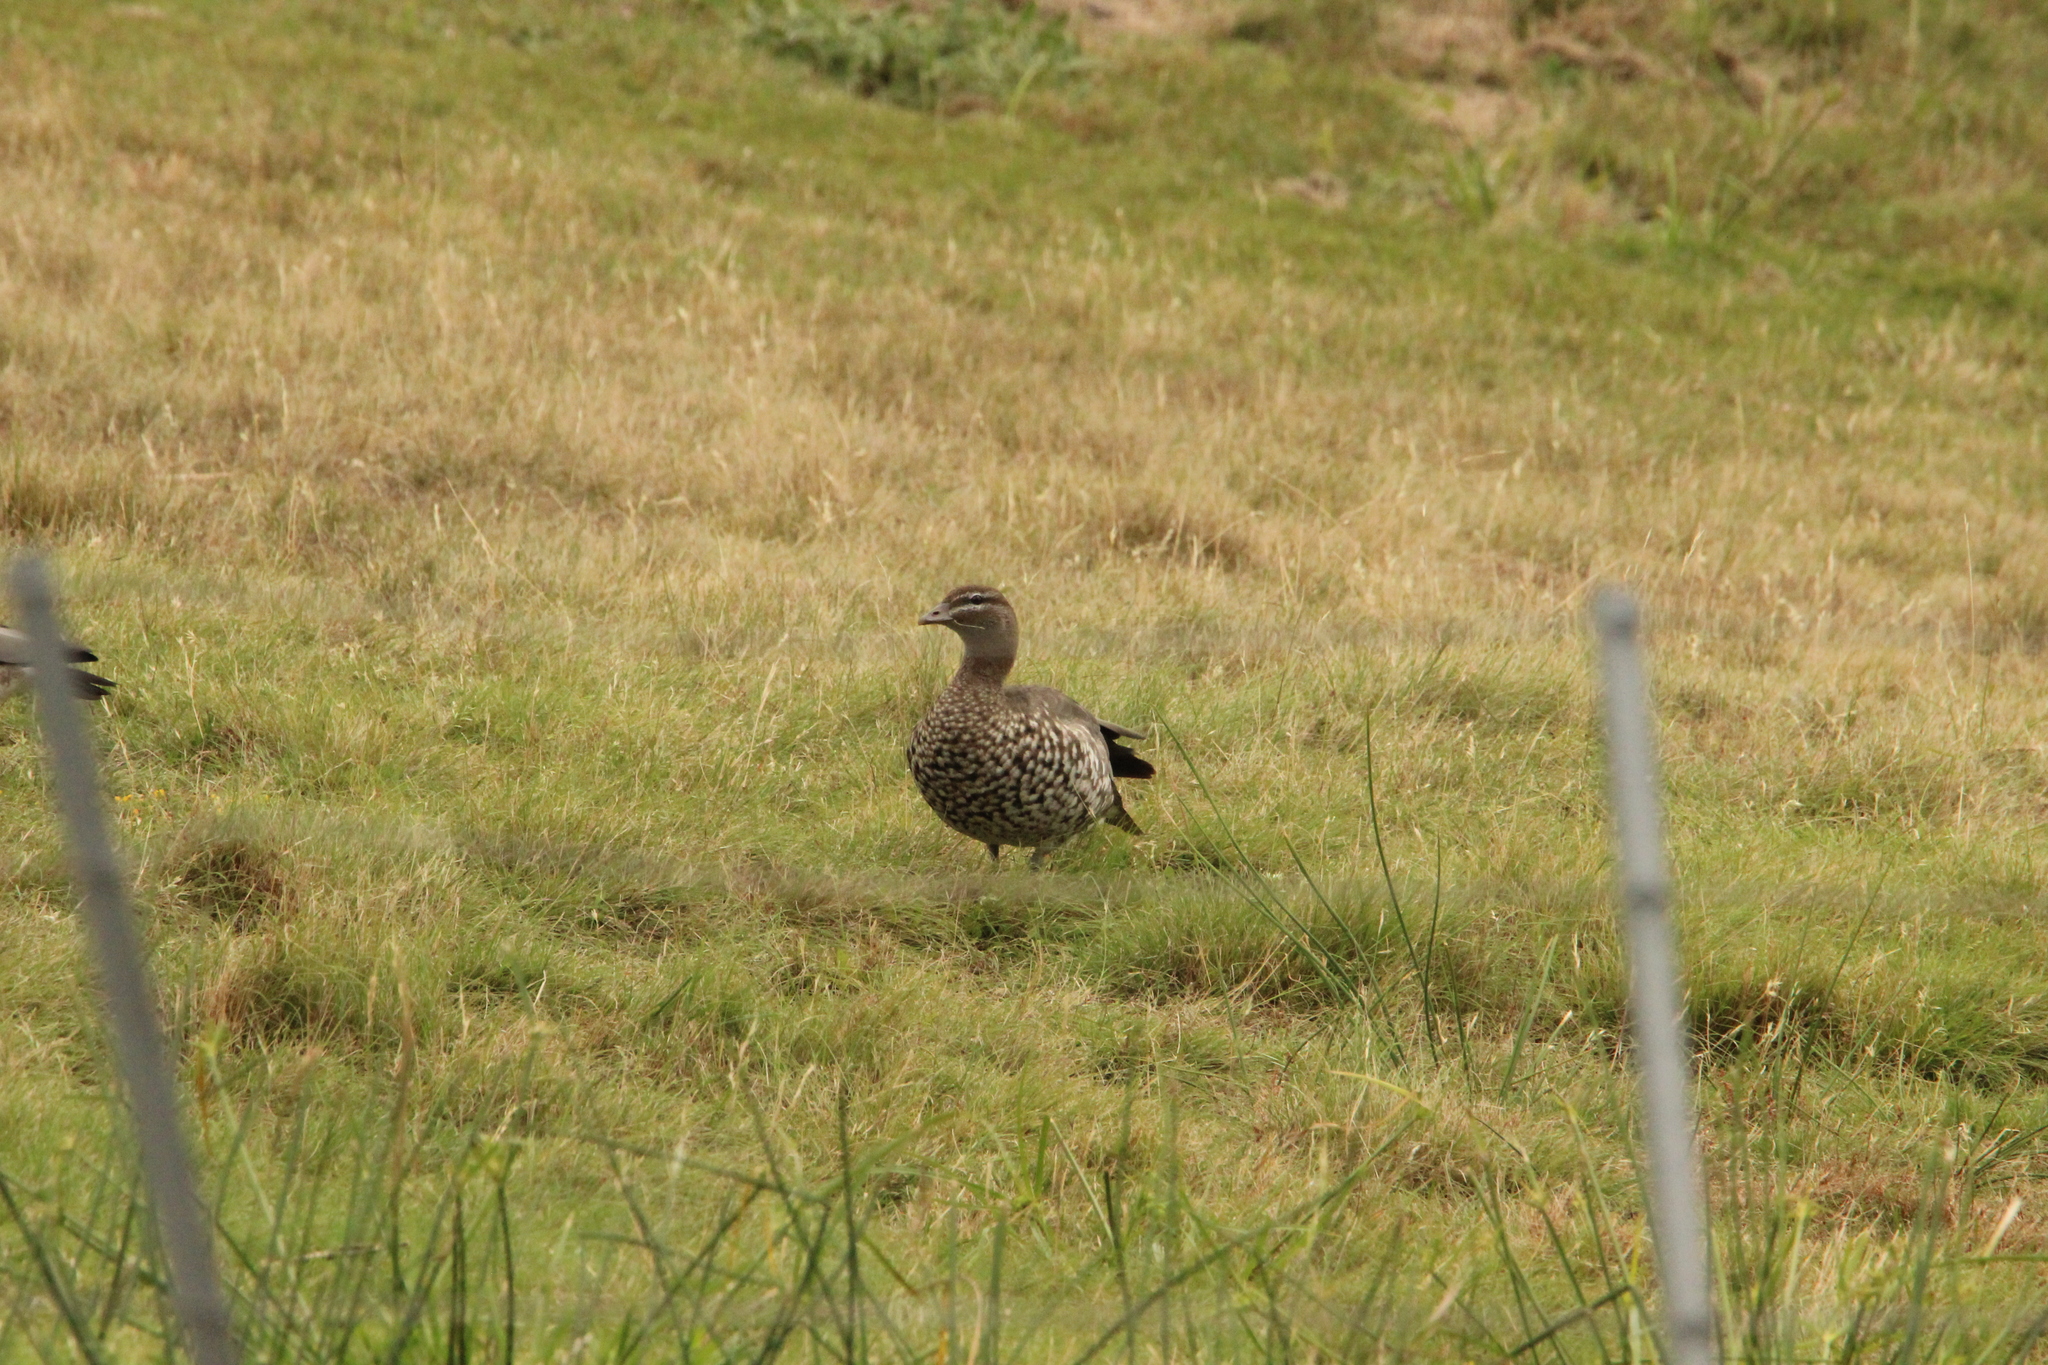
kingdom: Animalia
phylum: Chordata
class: Aves
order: Anseriformes
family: Anatidae
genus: Chenonetta
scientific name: Chenonetta jubata
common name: Maned duck
